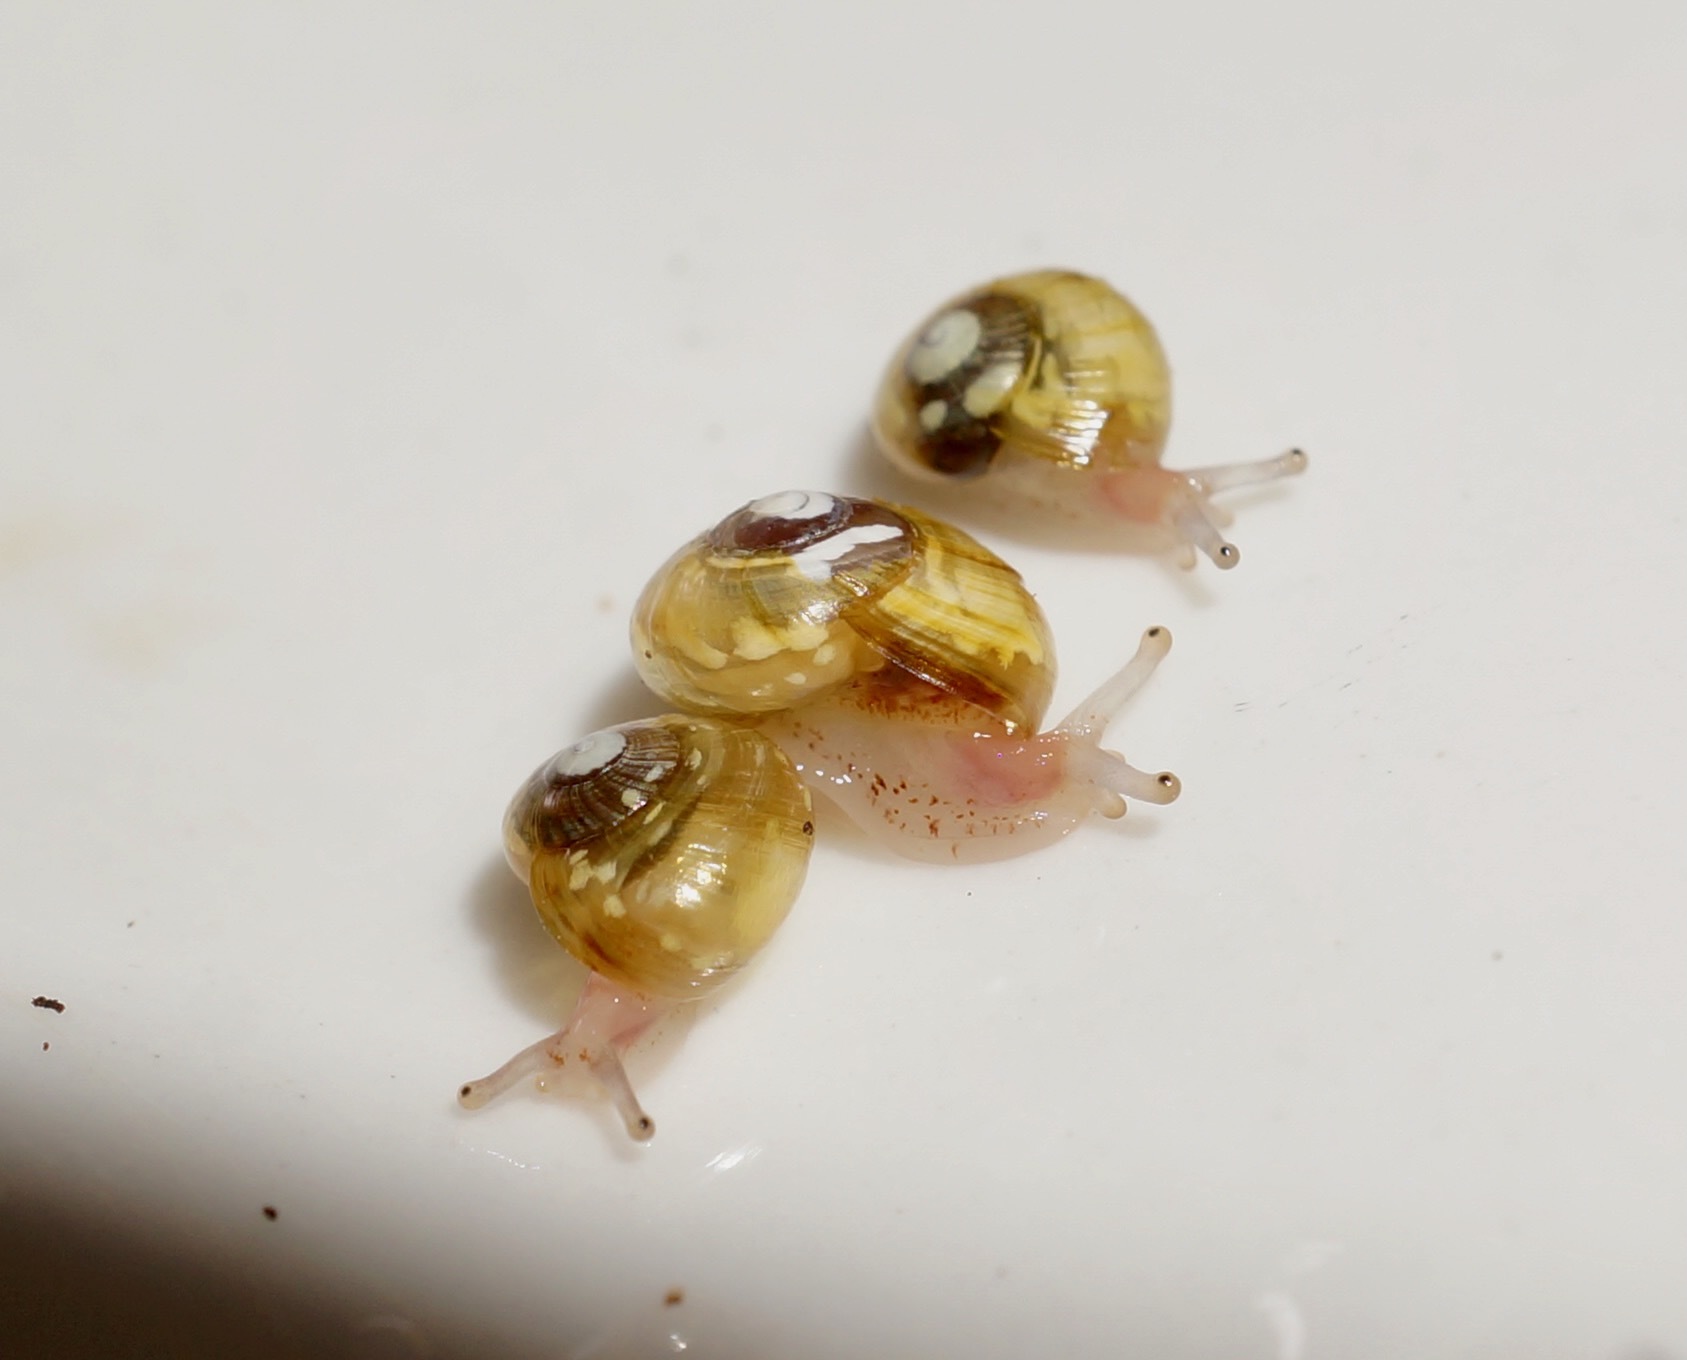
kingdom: Animalia
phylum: Mollusca
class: Gastropoda
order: Stylommatophora
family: Helicarionidae
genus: Dendrolamellaria
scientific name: Dendrolamellaria mathewsi
